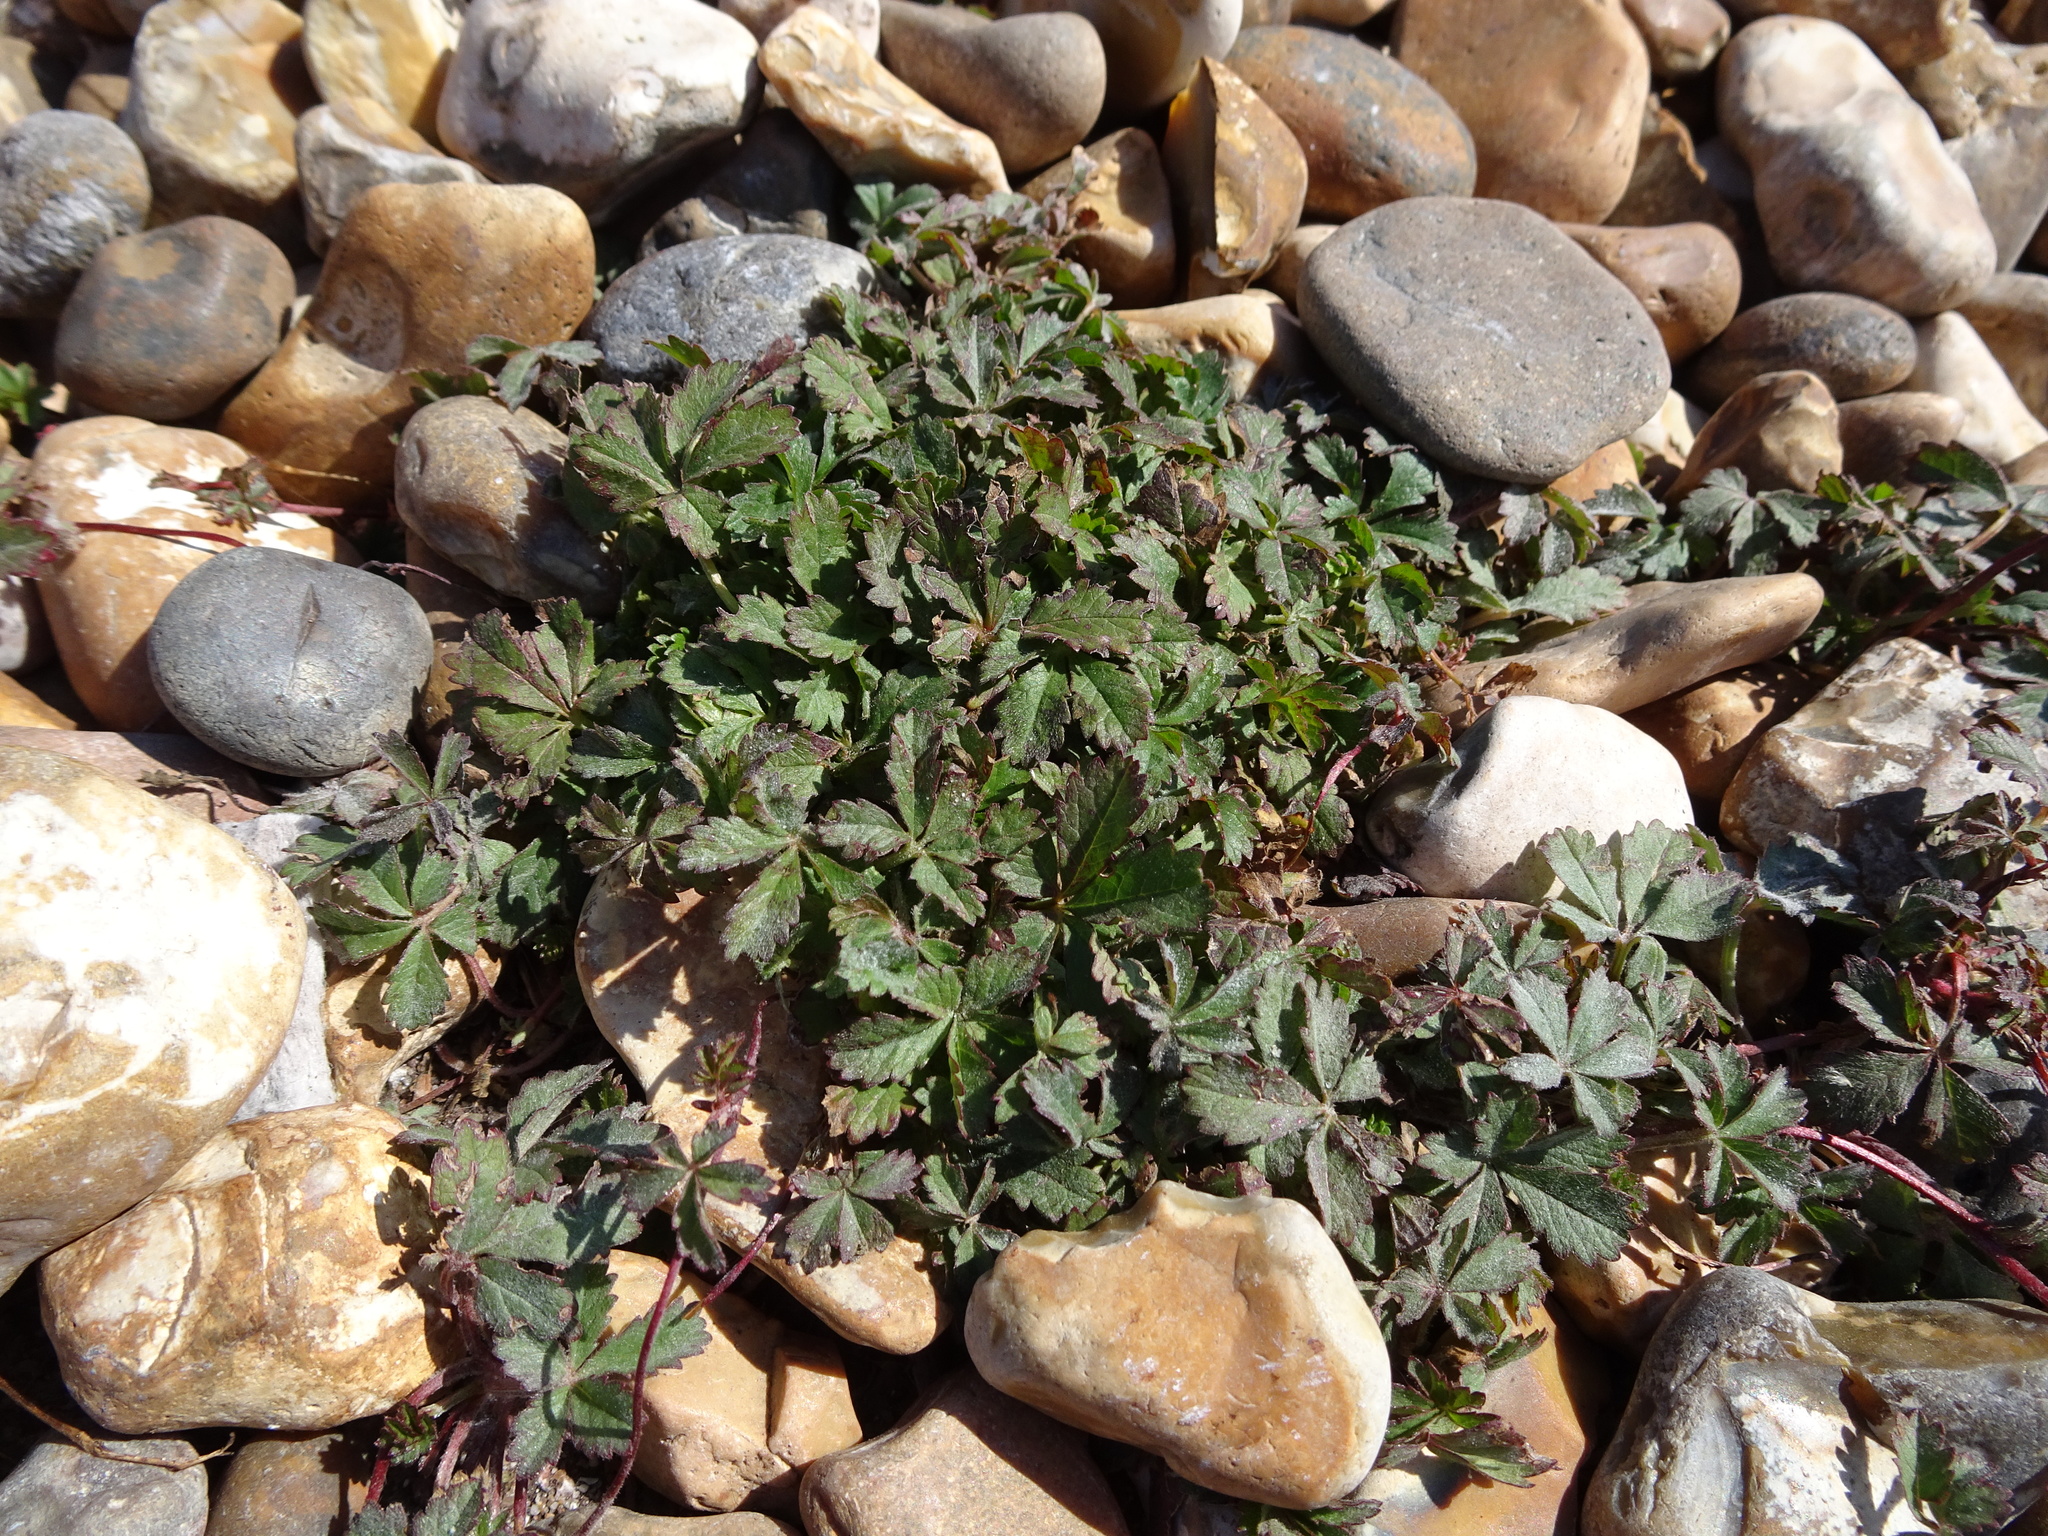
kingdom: Plantae
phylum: Tracheophyta
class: Magnoliopsida
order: Rosales
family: Rosaceae
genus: Potentilla
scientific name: Potentilla reptans
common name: Creeping cinquefoil
